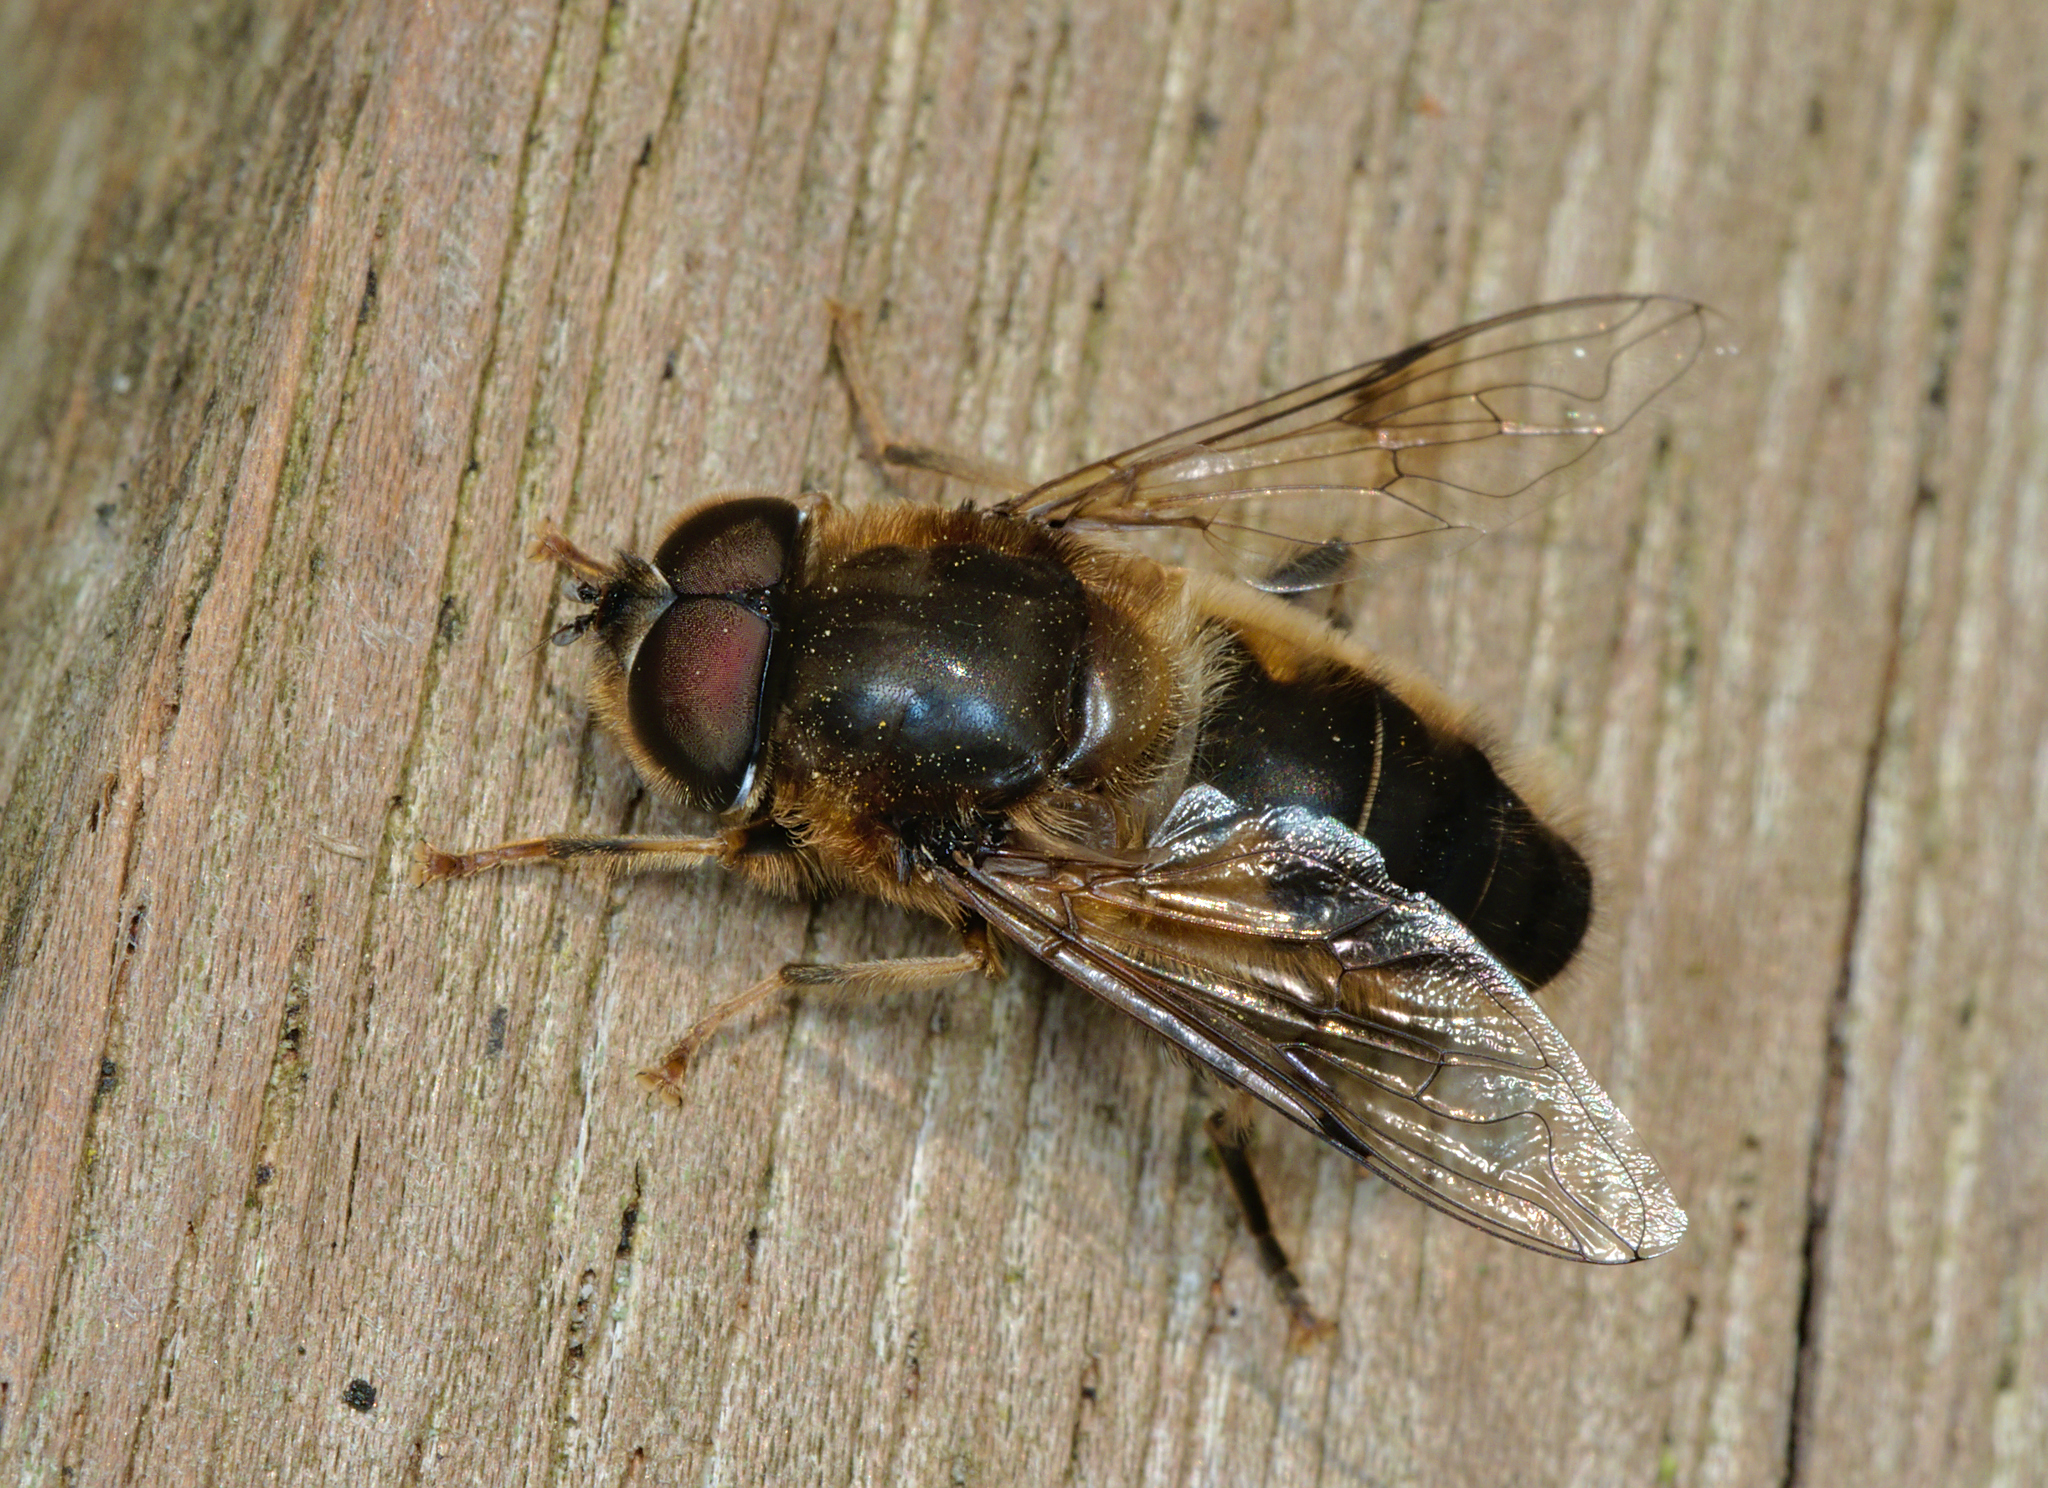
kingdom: Animalia
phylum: Arthropoda
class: Insecta
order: Diptera
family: Syrphidae
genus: Eristalis
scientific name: Eristalis pertinax
